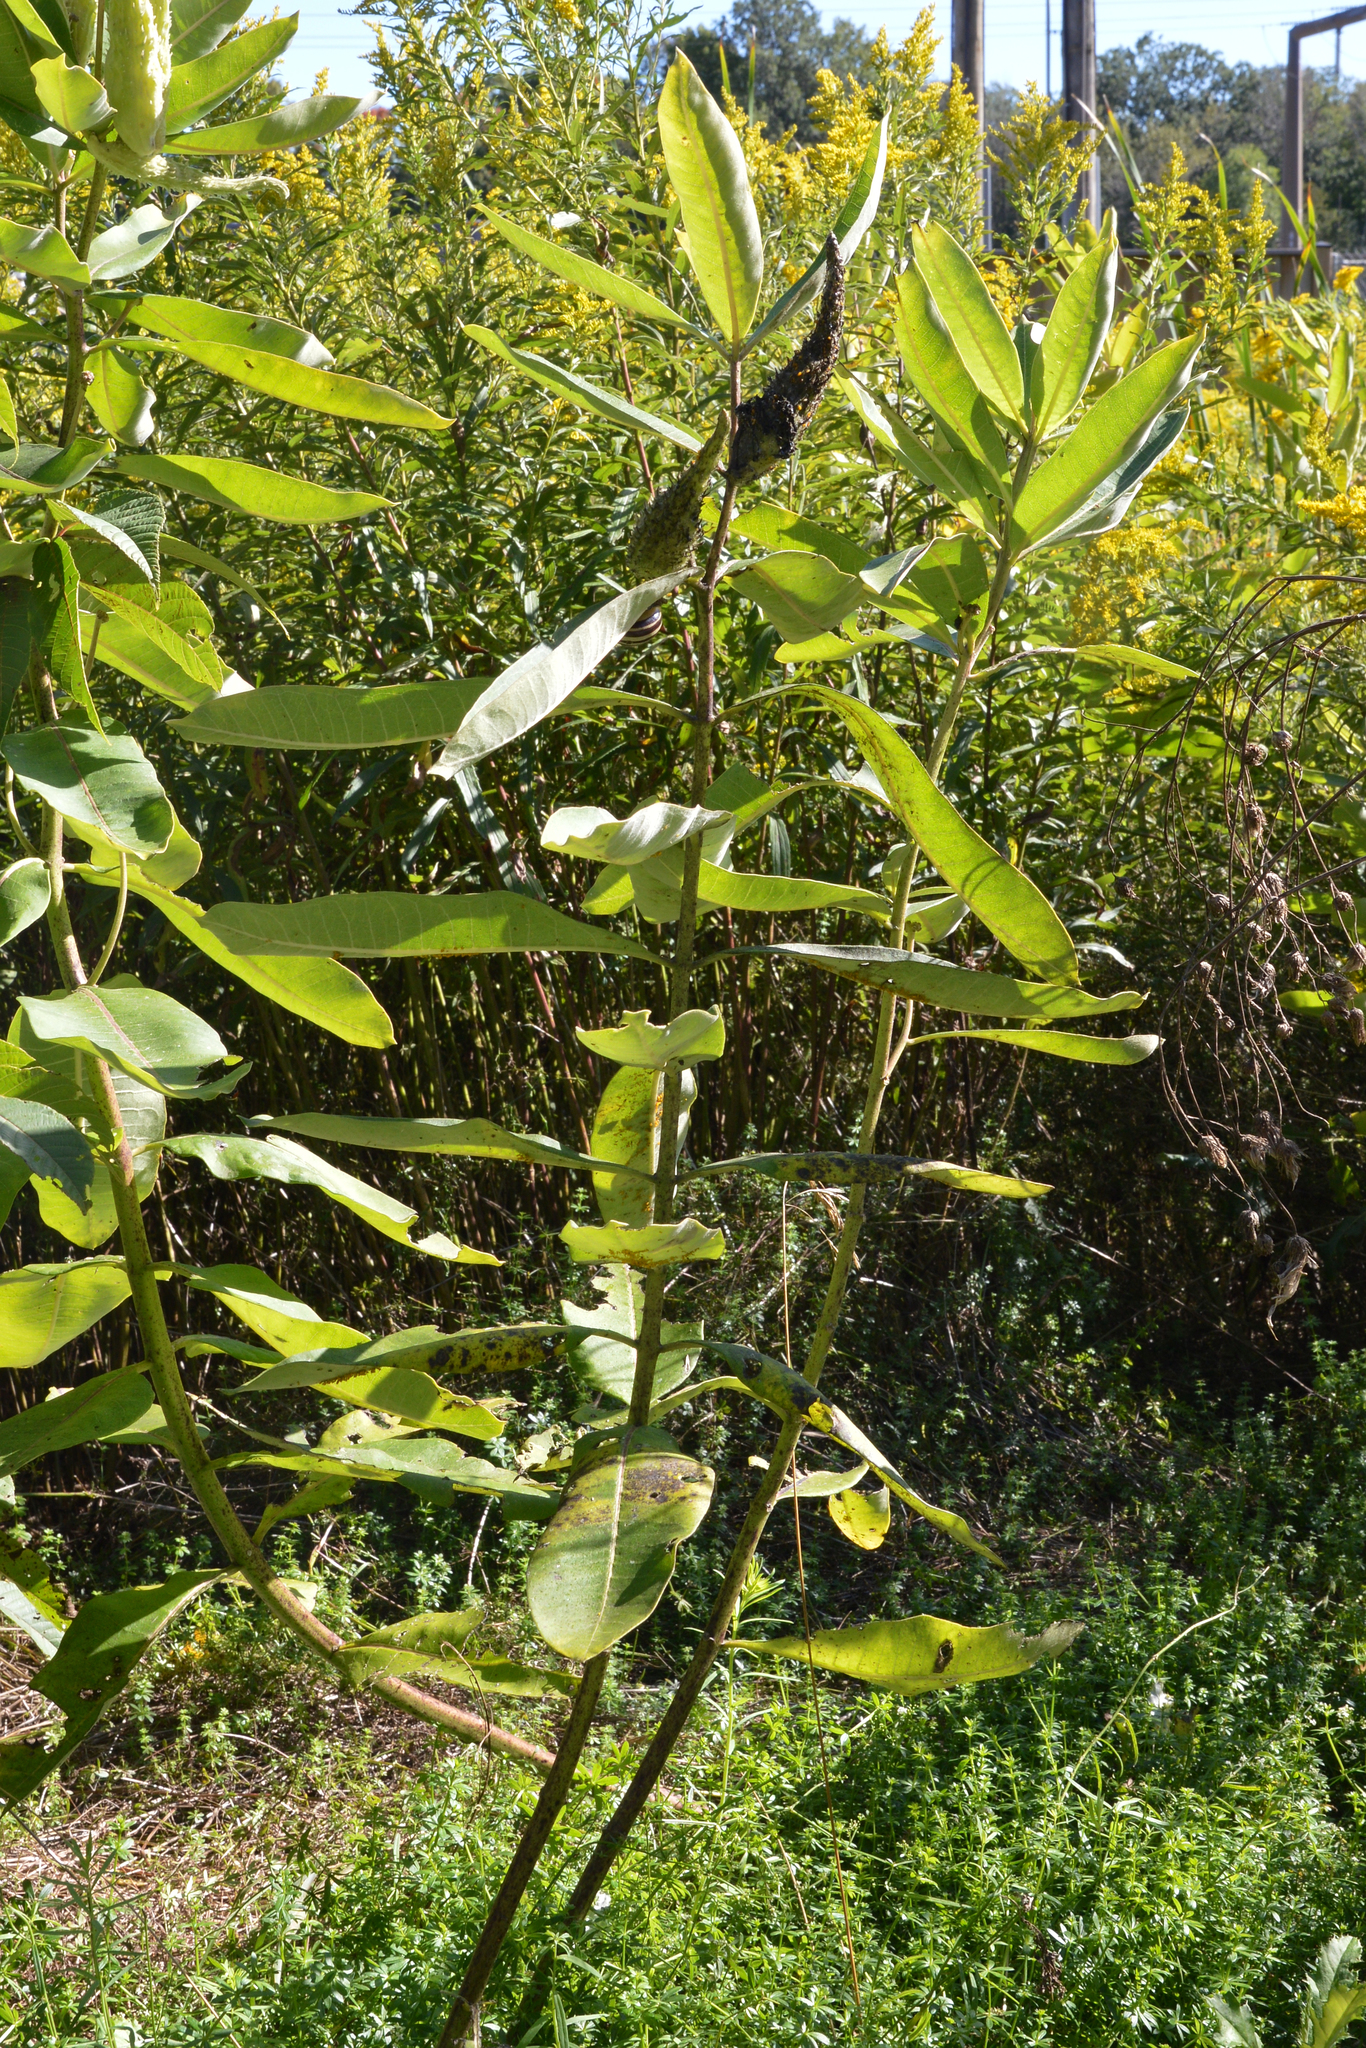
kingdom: Plantae
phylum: Tracheophyta
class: Magnoliopsida
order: Gentianales
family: Apocynaceae
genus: Asclepias
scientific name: Asclepias syriaca
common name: Common milkweed
